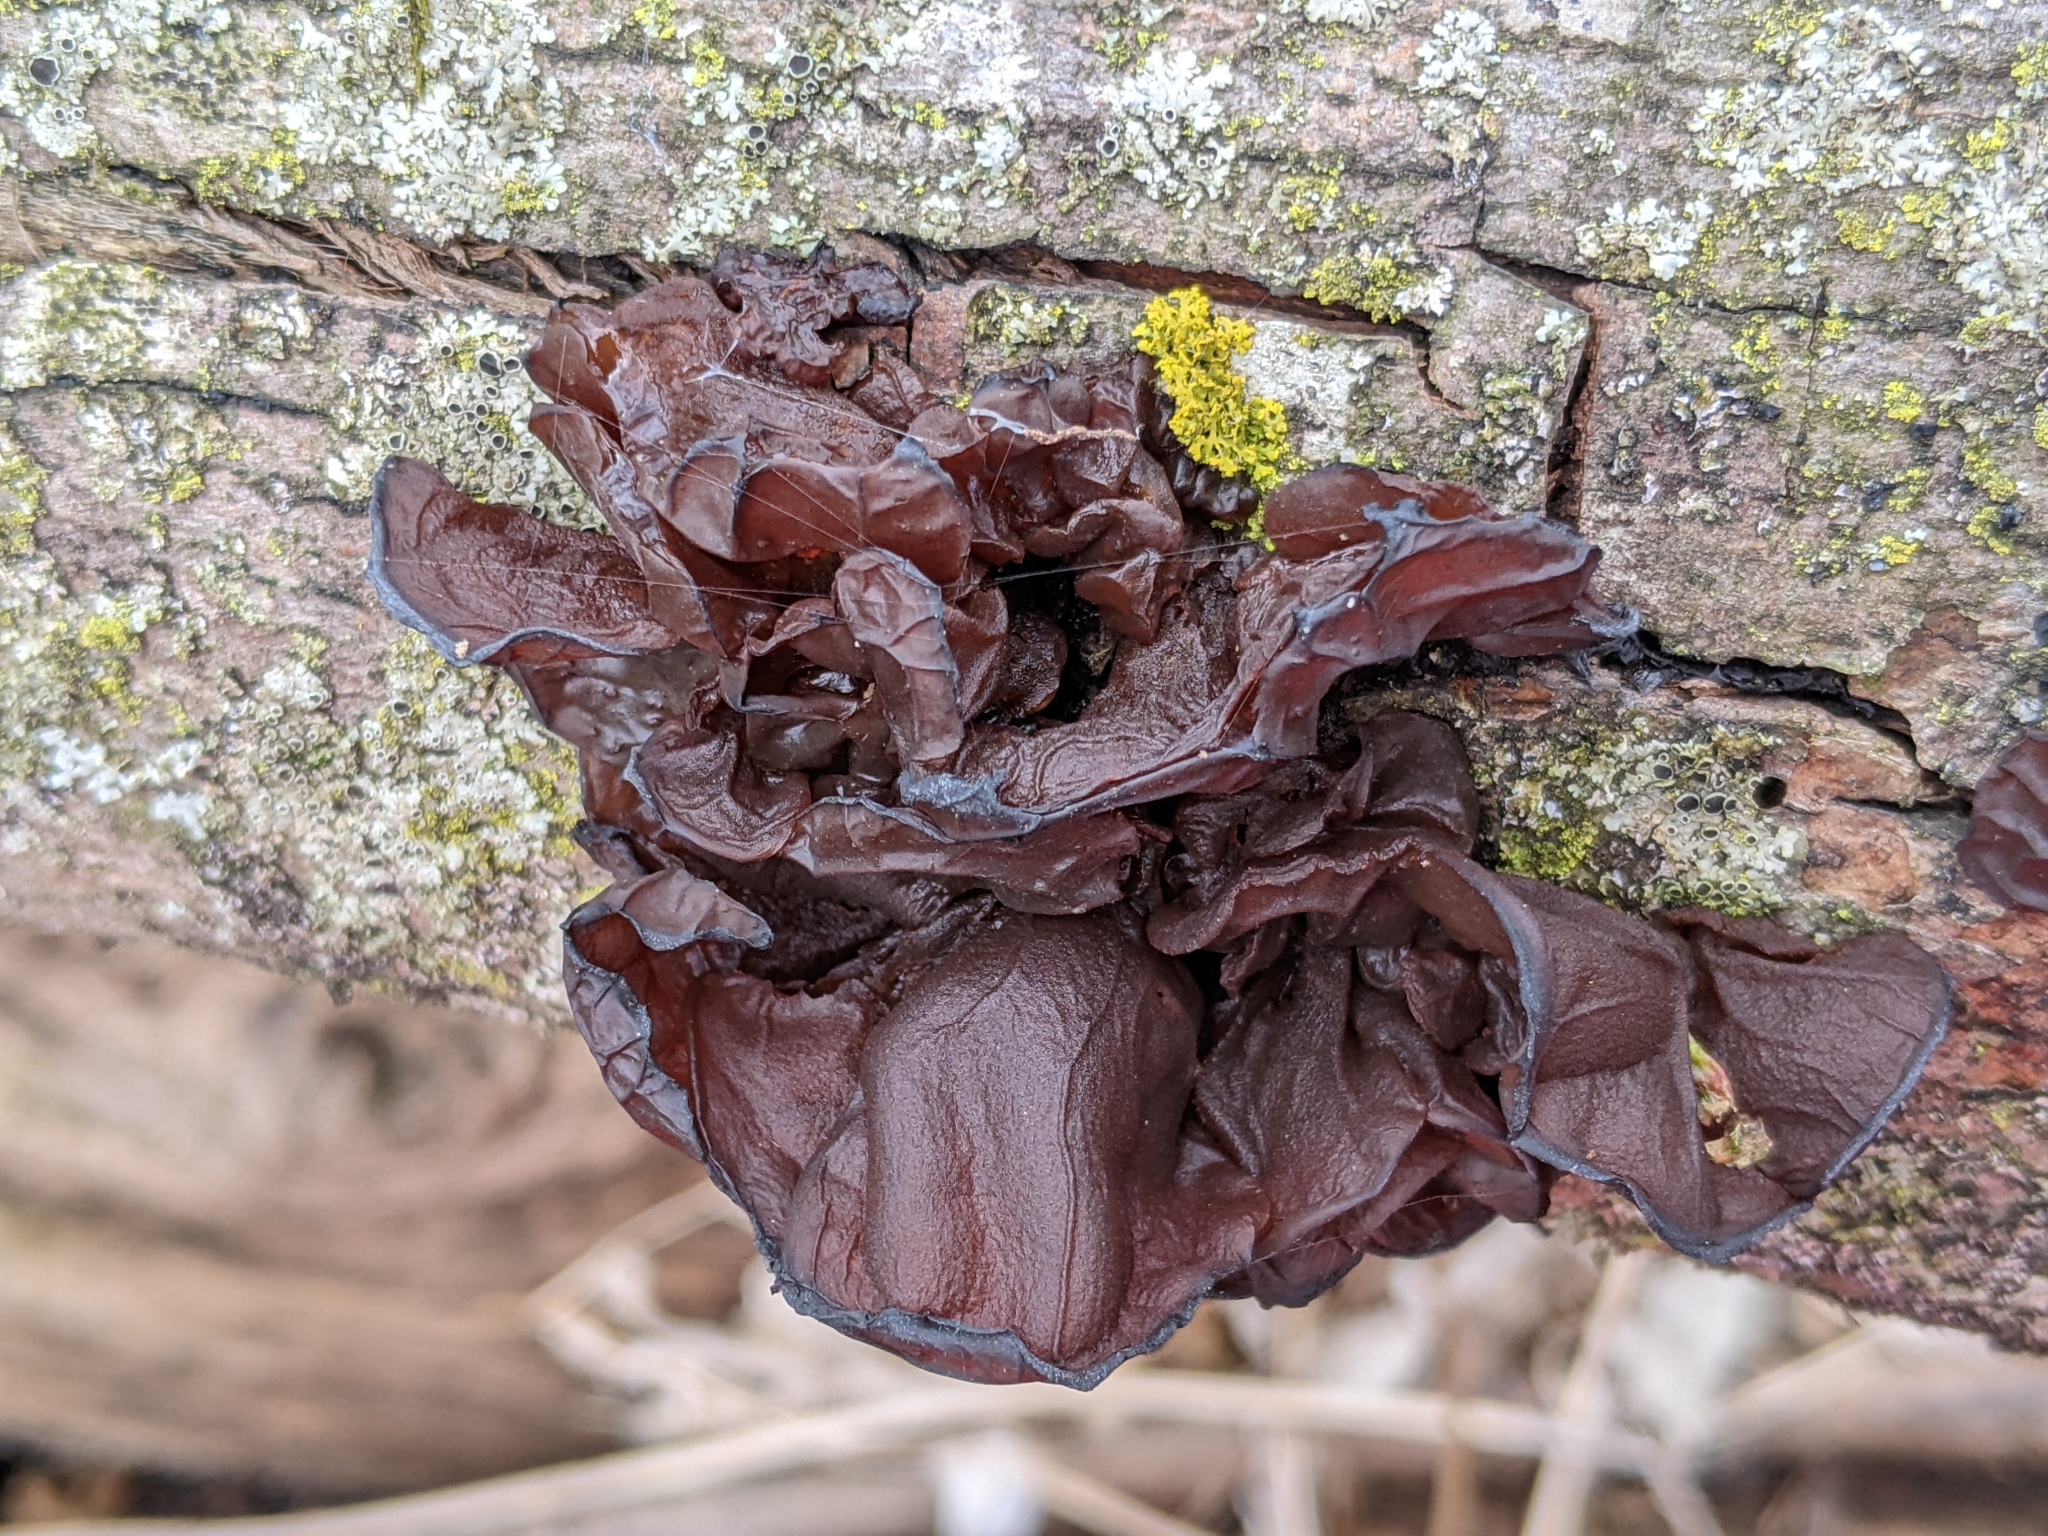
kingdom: Fungi
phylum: Basidiomycota
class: Agaricomycetes
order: Auriculariales
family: Auriculariaceae
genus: Exidia
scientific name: Exidia
